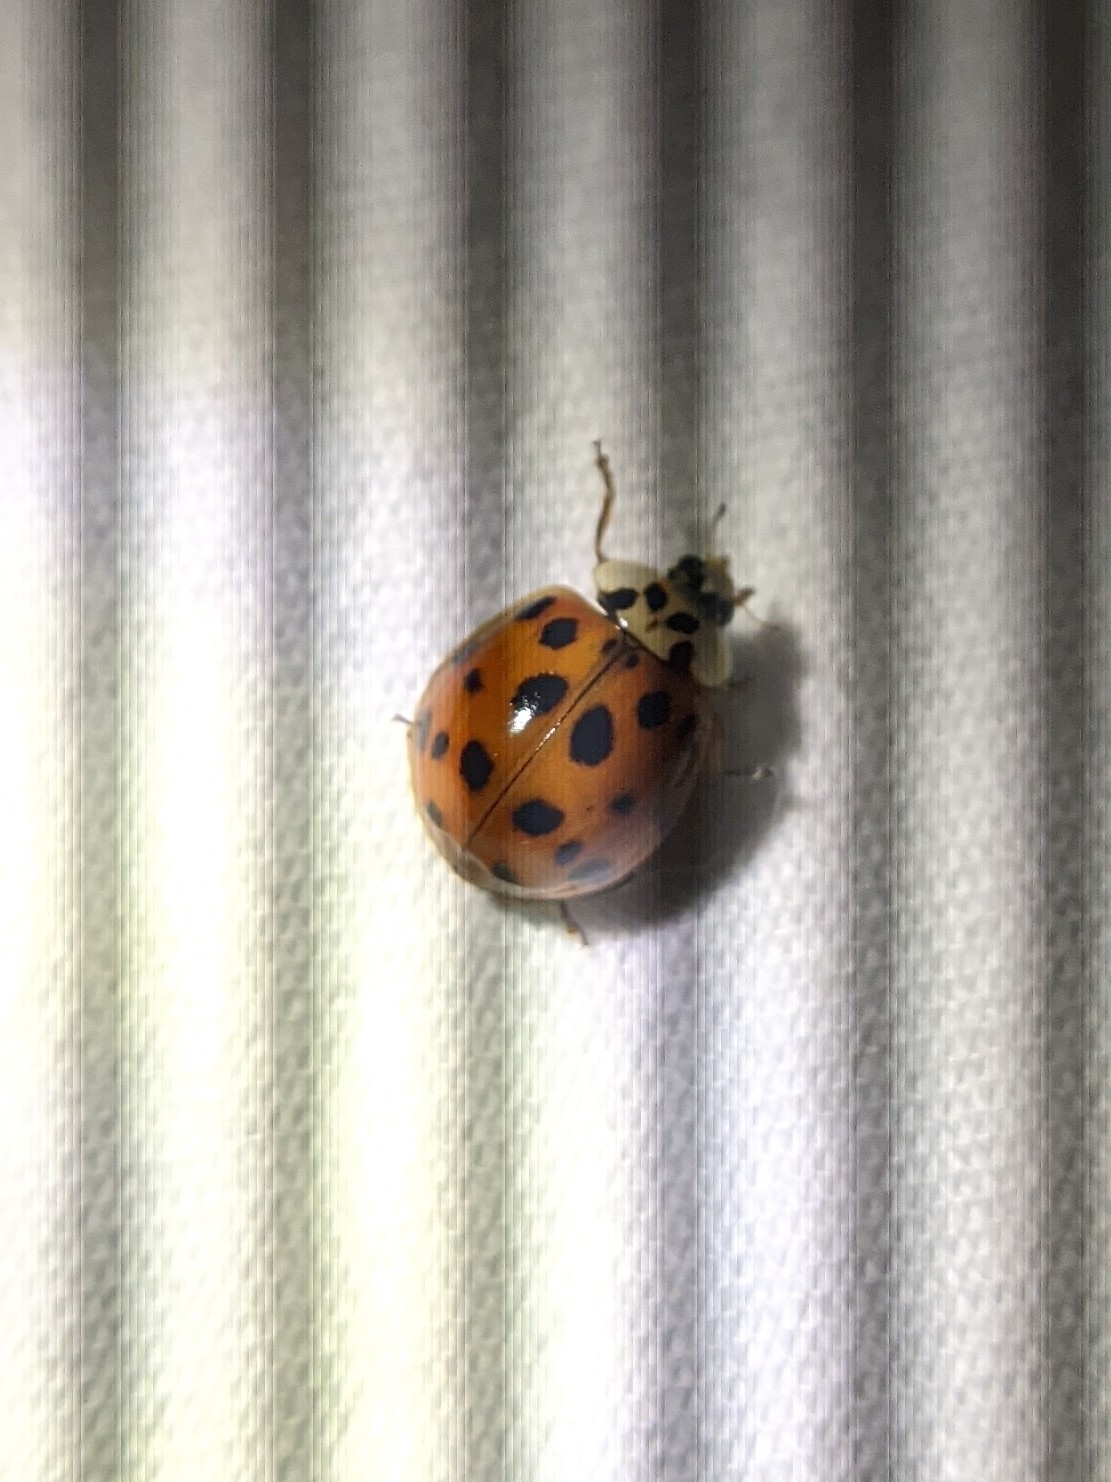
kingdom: Animalia
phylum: Arthropoda
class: Insecta
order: Coleoptera
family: Coccinellidae
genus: Harmonia
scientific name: Harmonia axyridis
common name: Harlequin ladybird
